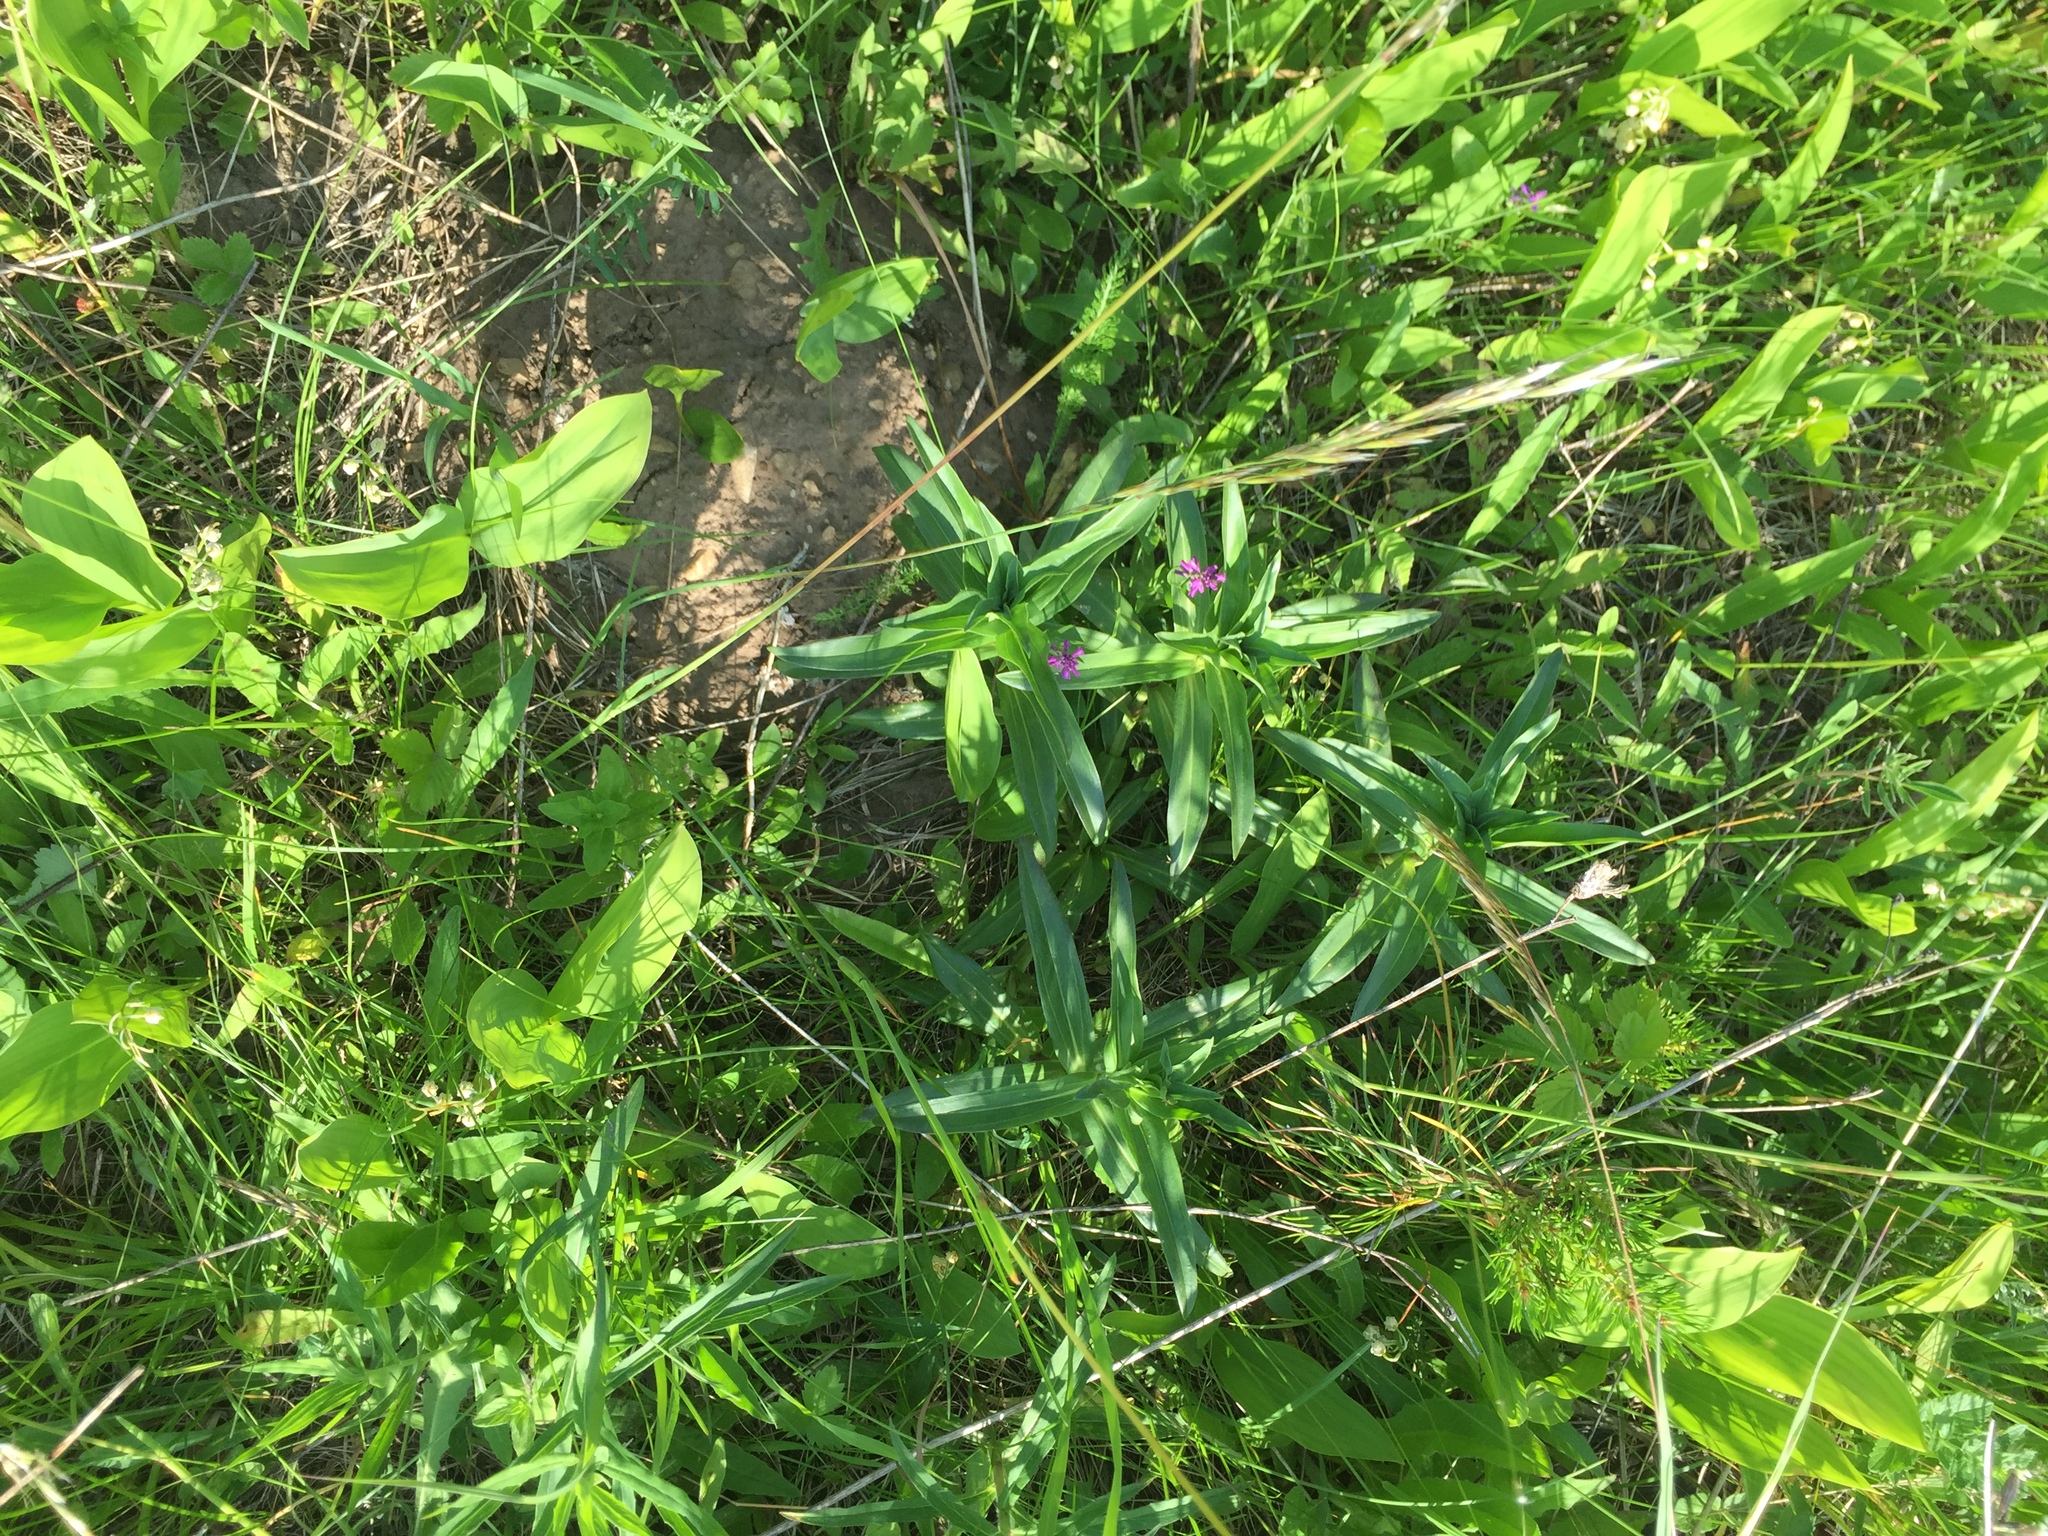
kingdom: Plantae
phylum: Tracheophyta
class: Magnoliopsida
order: Gentianales
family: Gentianaceae
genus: Gentiana
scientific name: Gentiana cruciata
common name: Cross gentian
